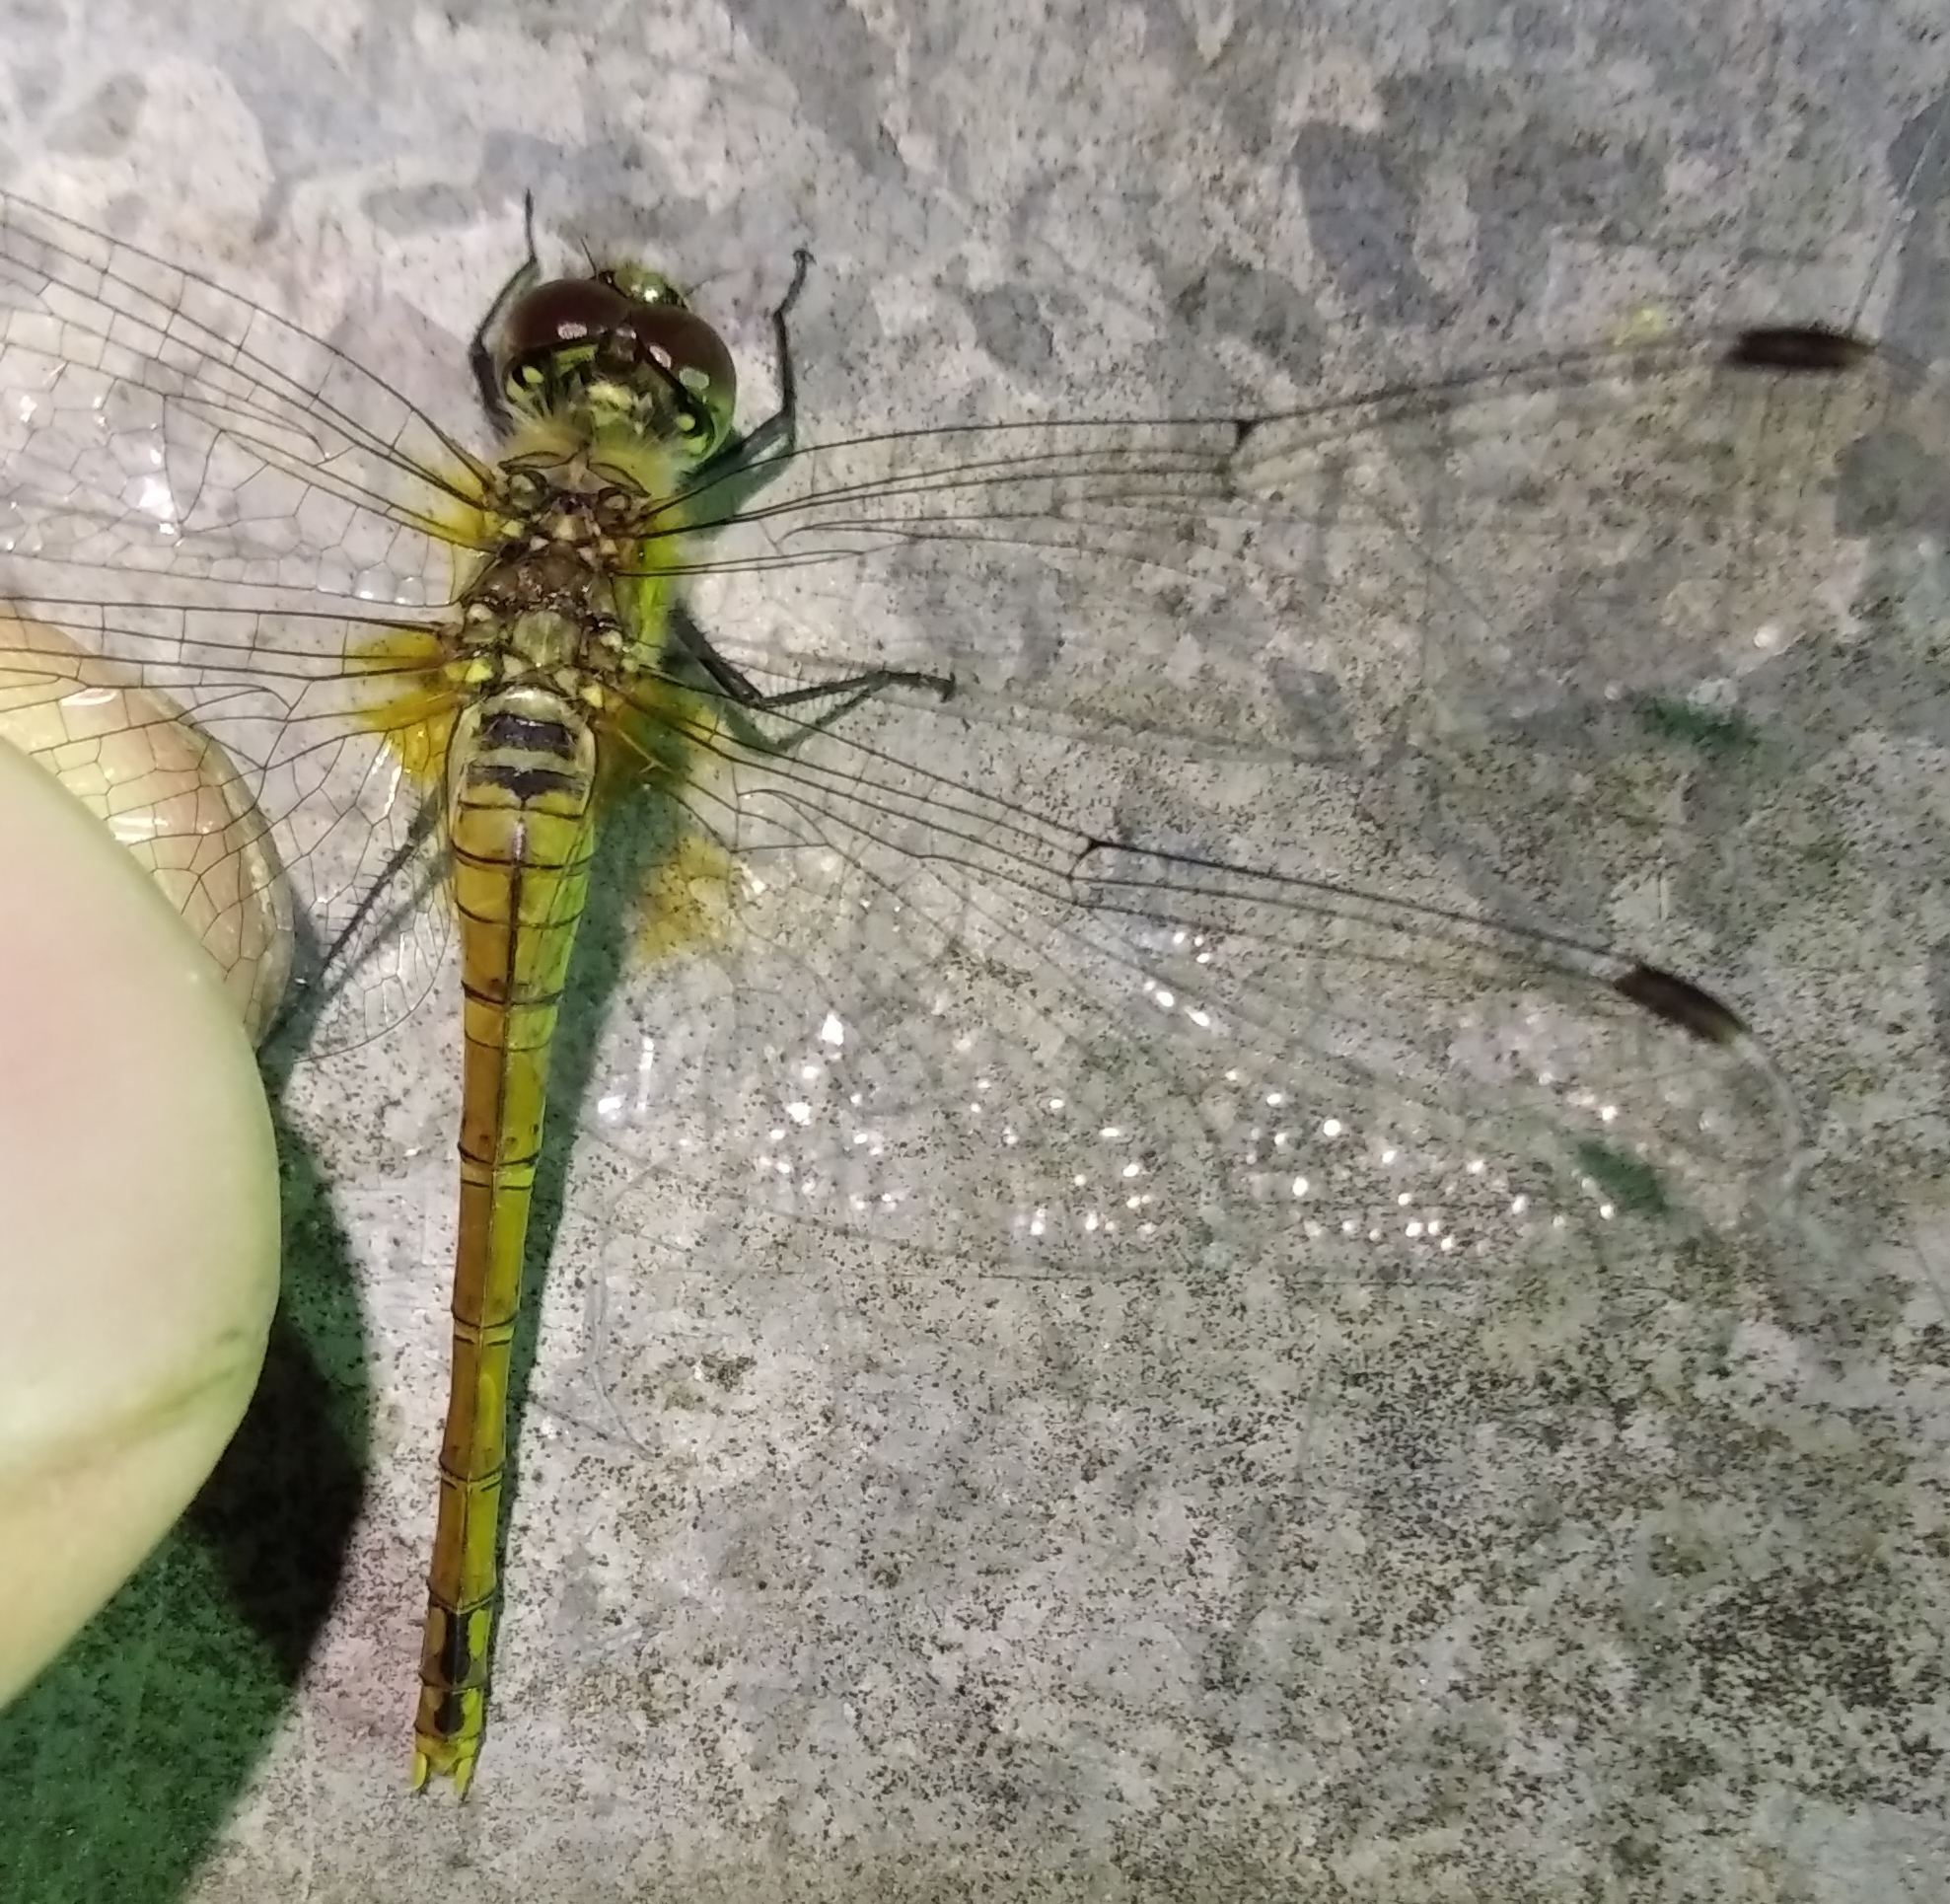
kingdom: Animalia
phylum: Arthropoda
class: Insecta
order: Odonata
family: Libellulidae
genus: Sympetrum
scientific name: Sympetrum sanguineum
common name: Ruddy darter
